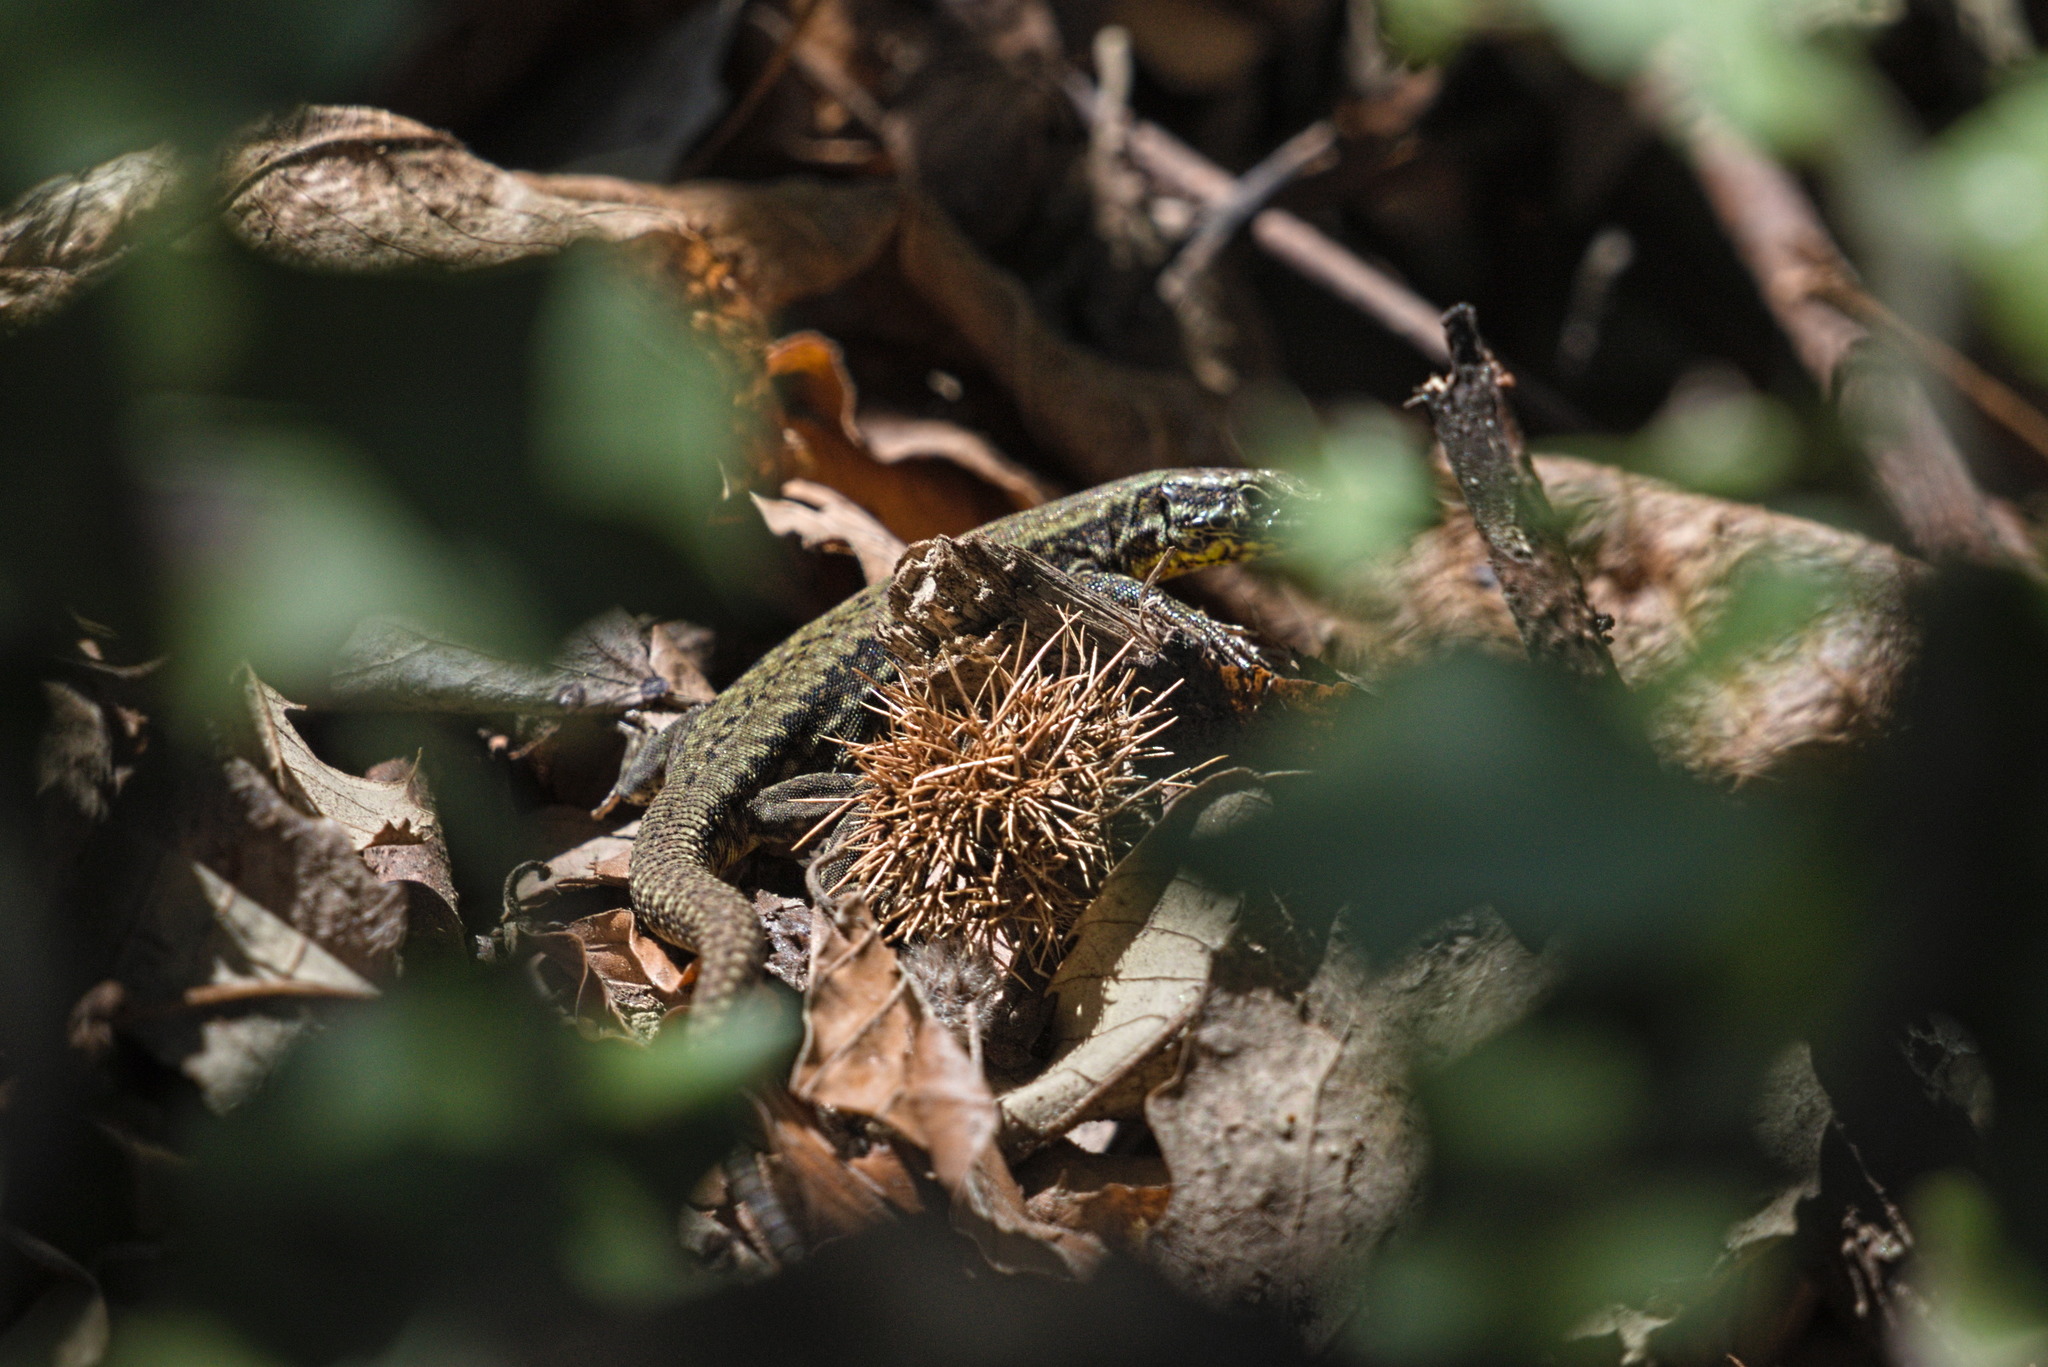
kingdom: Animalia
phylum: Chordata
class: Squamata
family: Lacertidae
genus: Podarcis
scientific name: Podarcis muralis
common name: Common wall lizard
